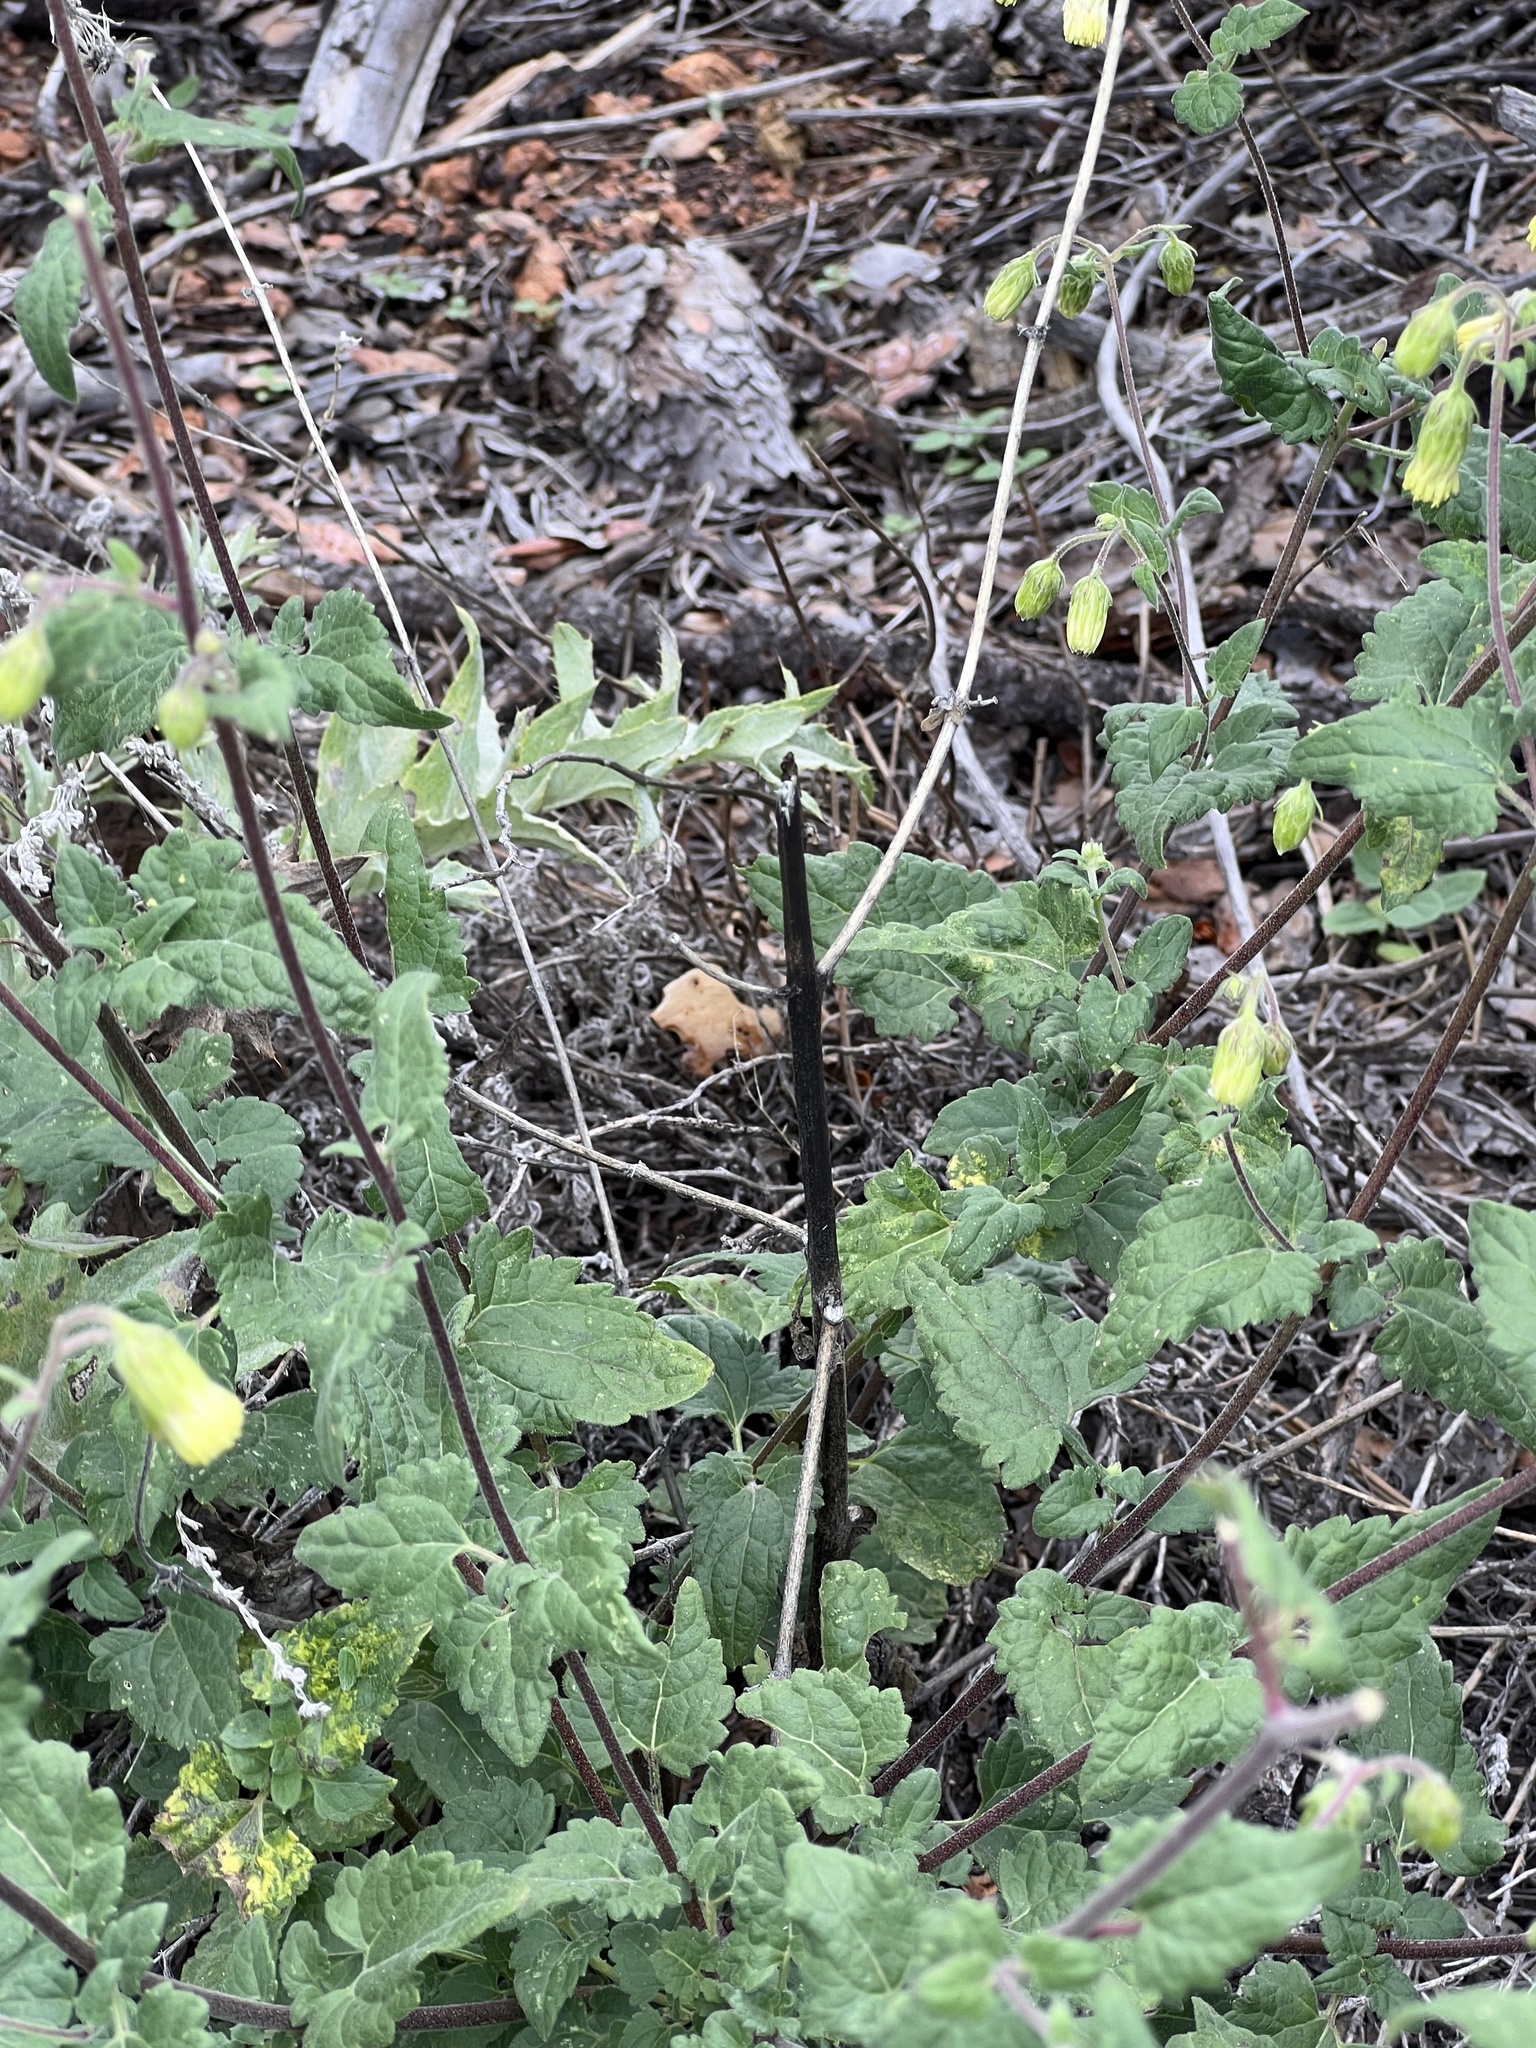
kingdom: Plantae
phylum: Tracheophyta
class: Magnoliopsida
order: Asterales
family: Asteraceae
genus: Brickellia
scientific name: Brickellia grandiflora
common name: Large-flowered brickellia
